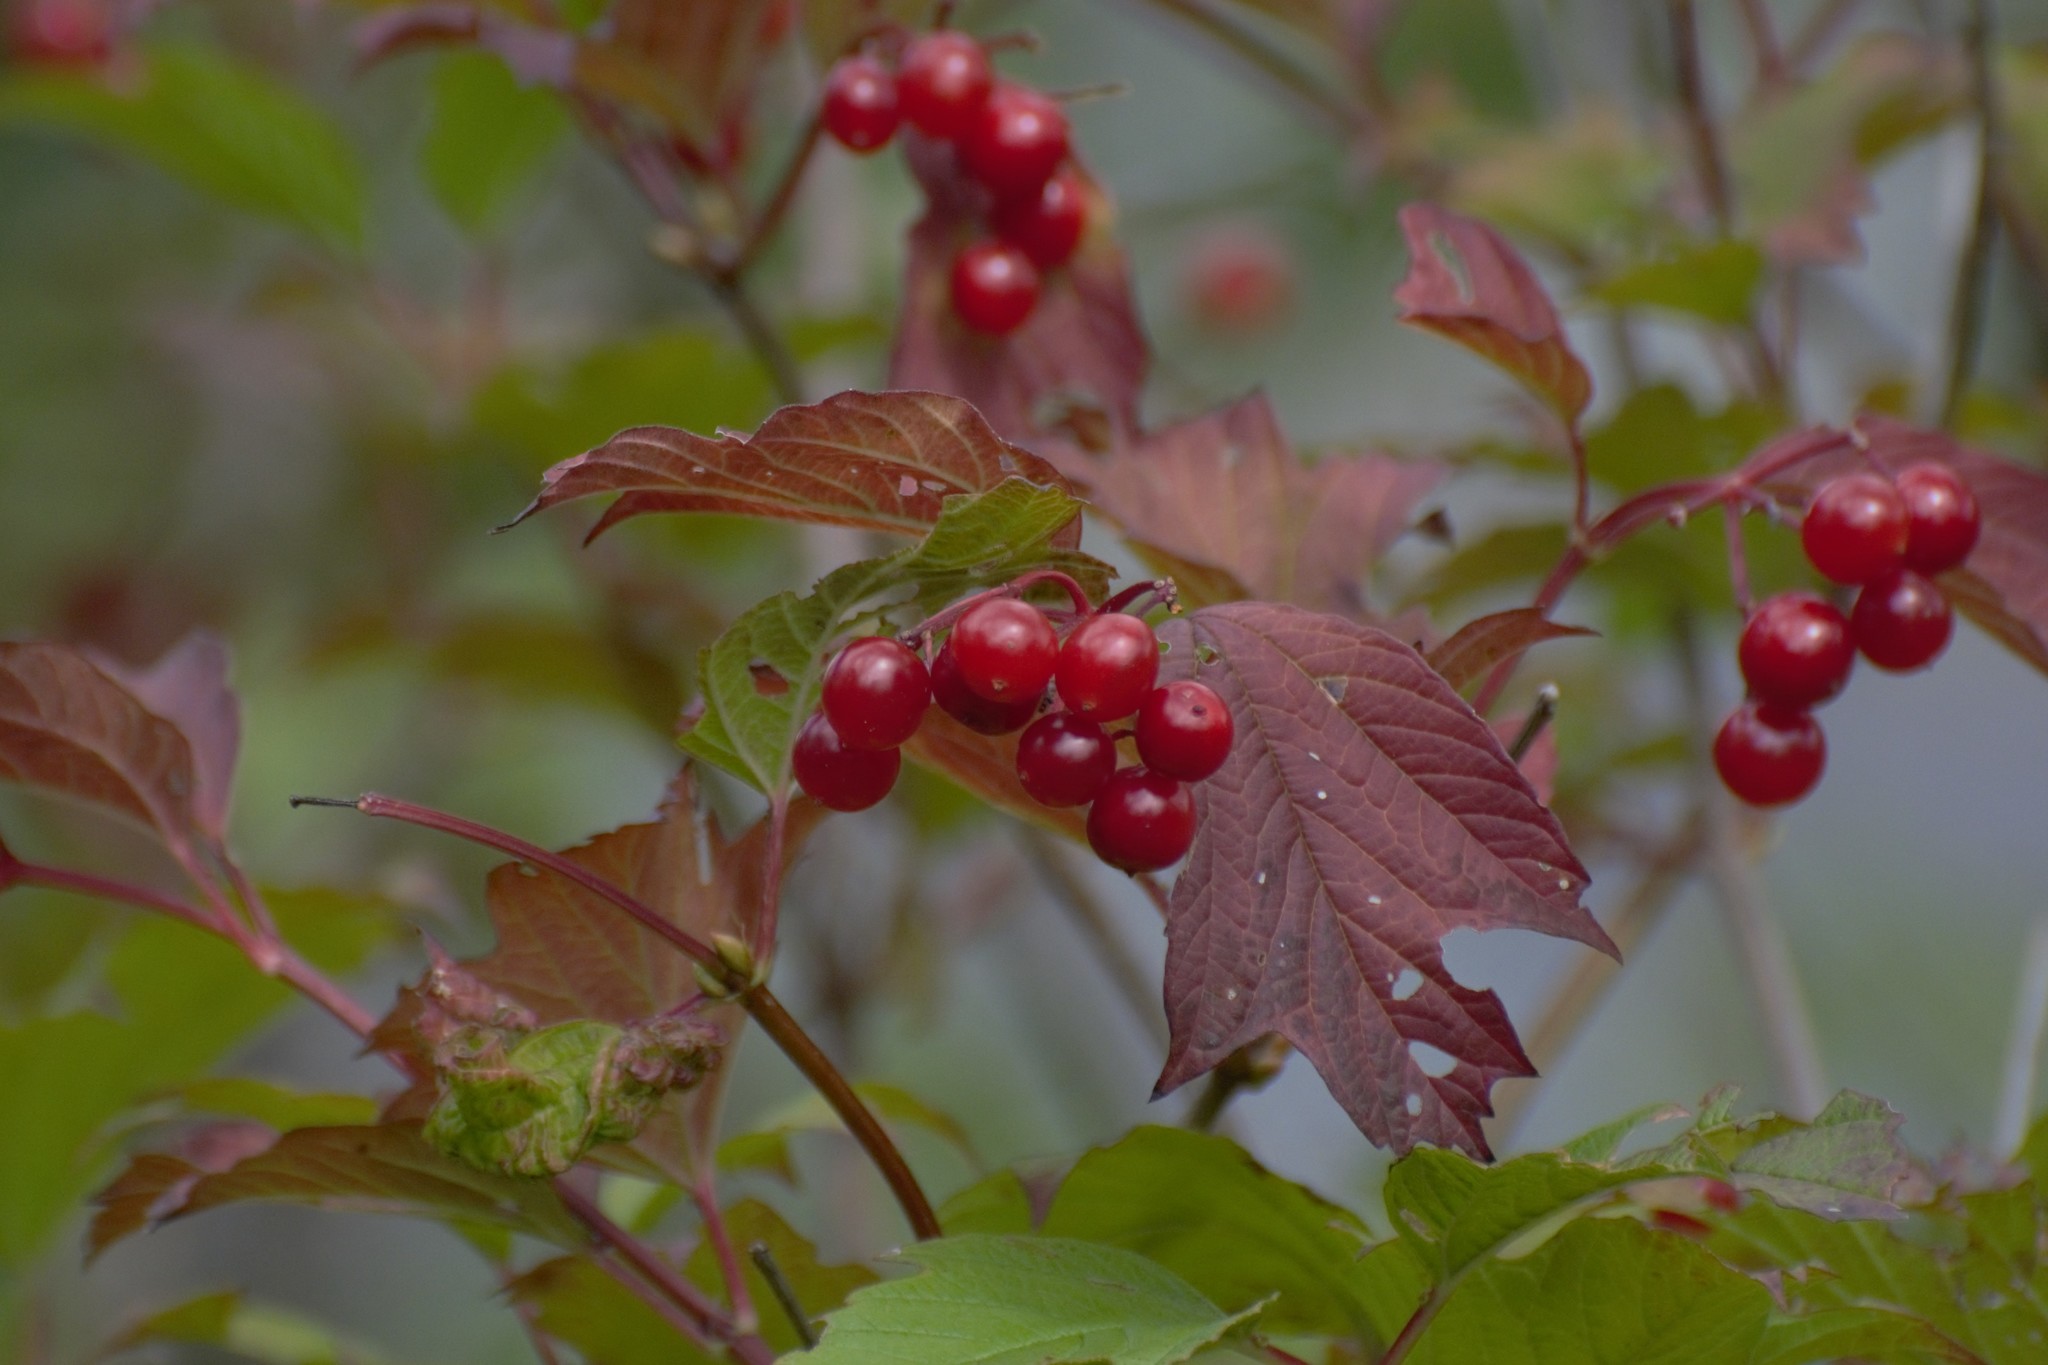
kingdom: Plantae
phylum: Tracheophyta
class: Magnoliopsida
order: Dipsacales
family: Viburnaceae
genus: Viburnum
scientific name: Viburnum opulus
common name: Guelder-rose
